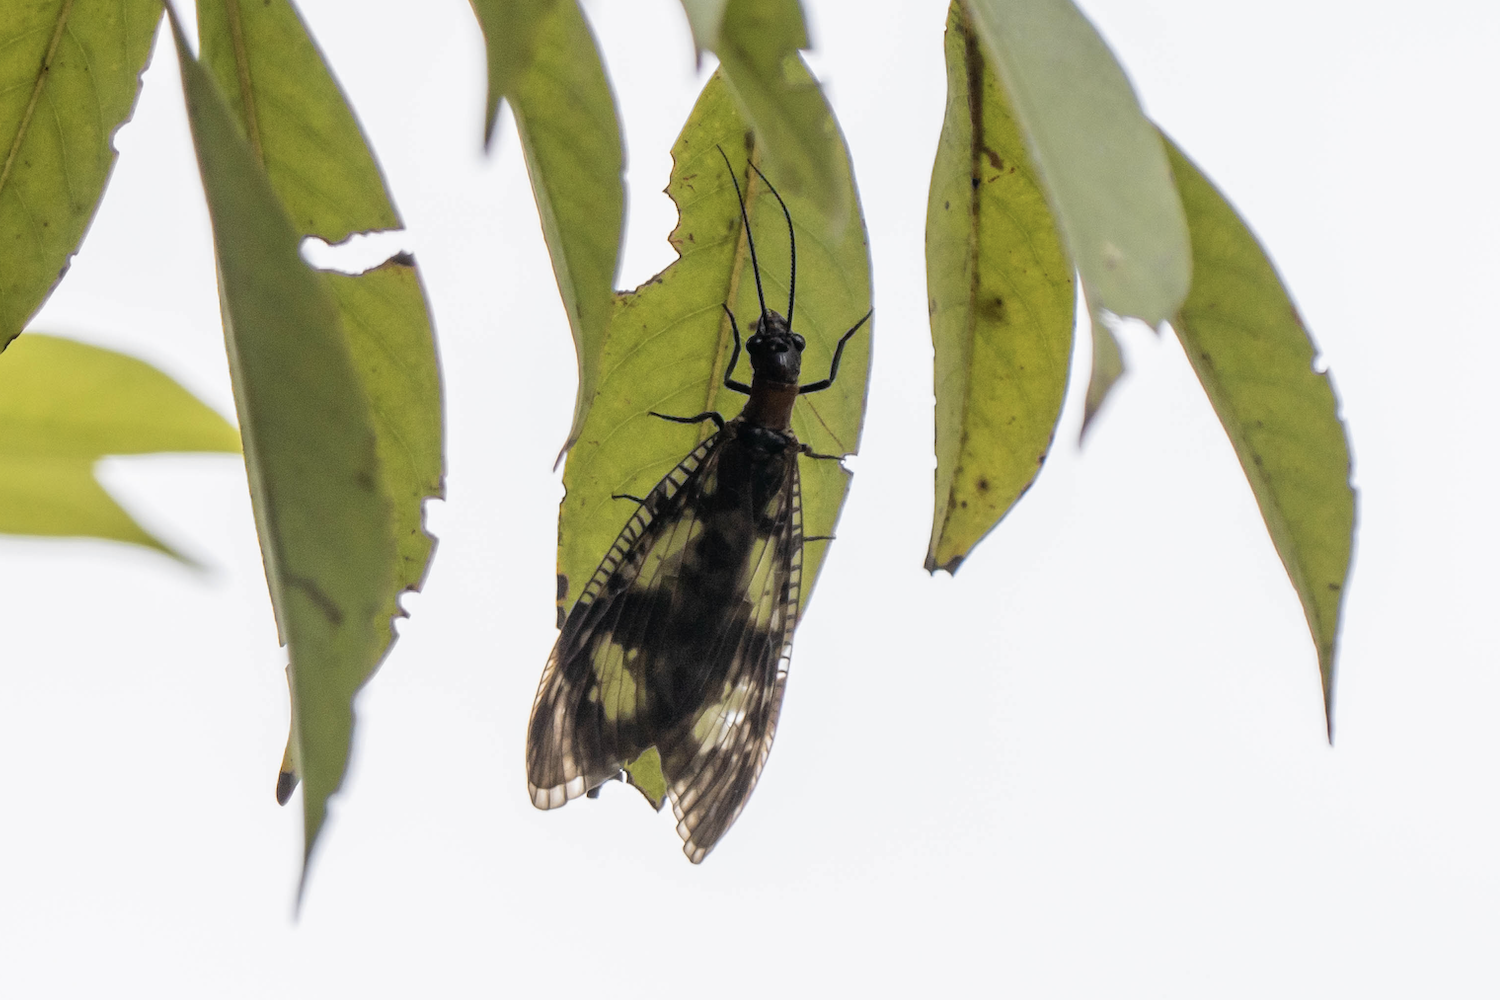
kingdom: Animalia
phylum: Arthropoda
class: Insecta
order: Megaloptera
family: Corydalidae
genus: Neochauliodes
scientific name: Neochauliodes koreanus
